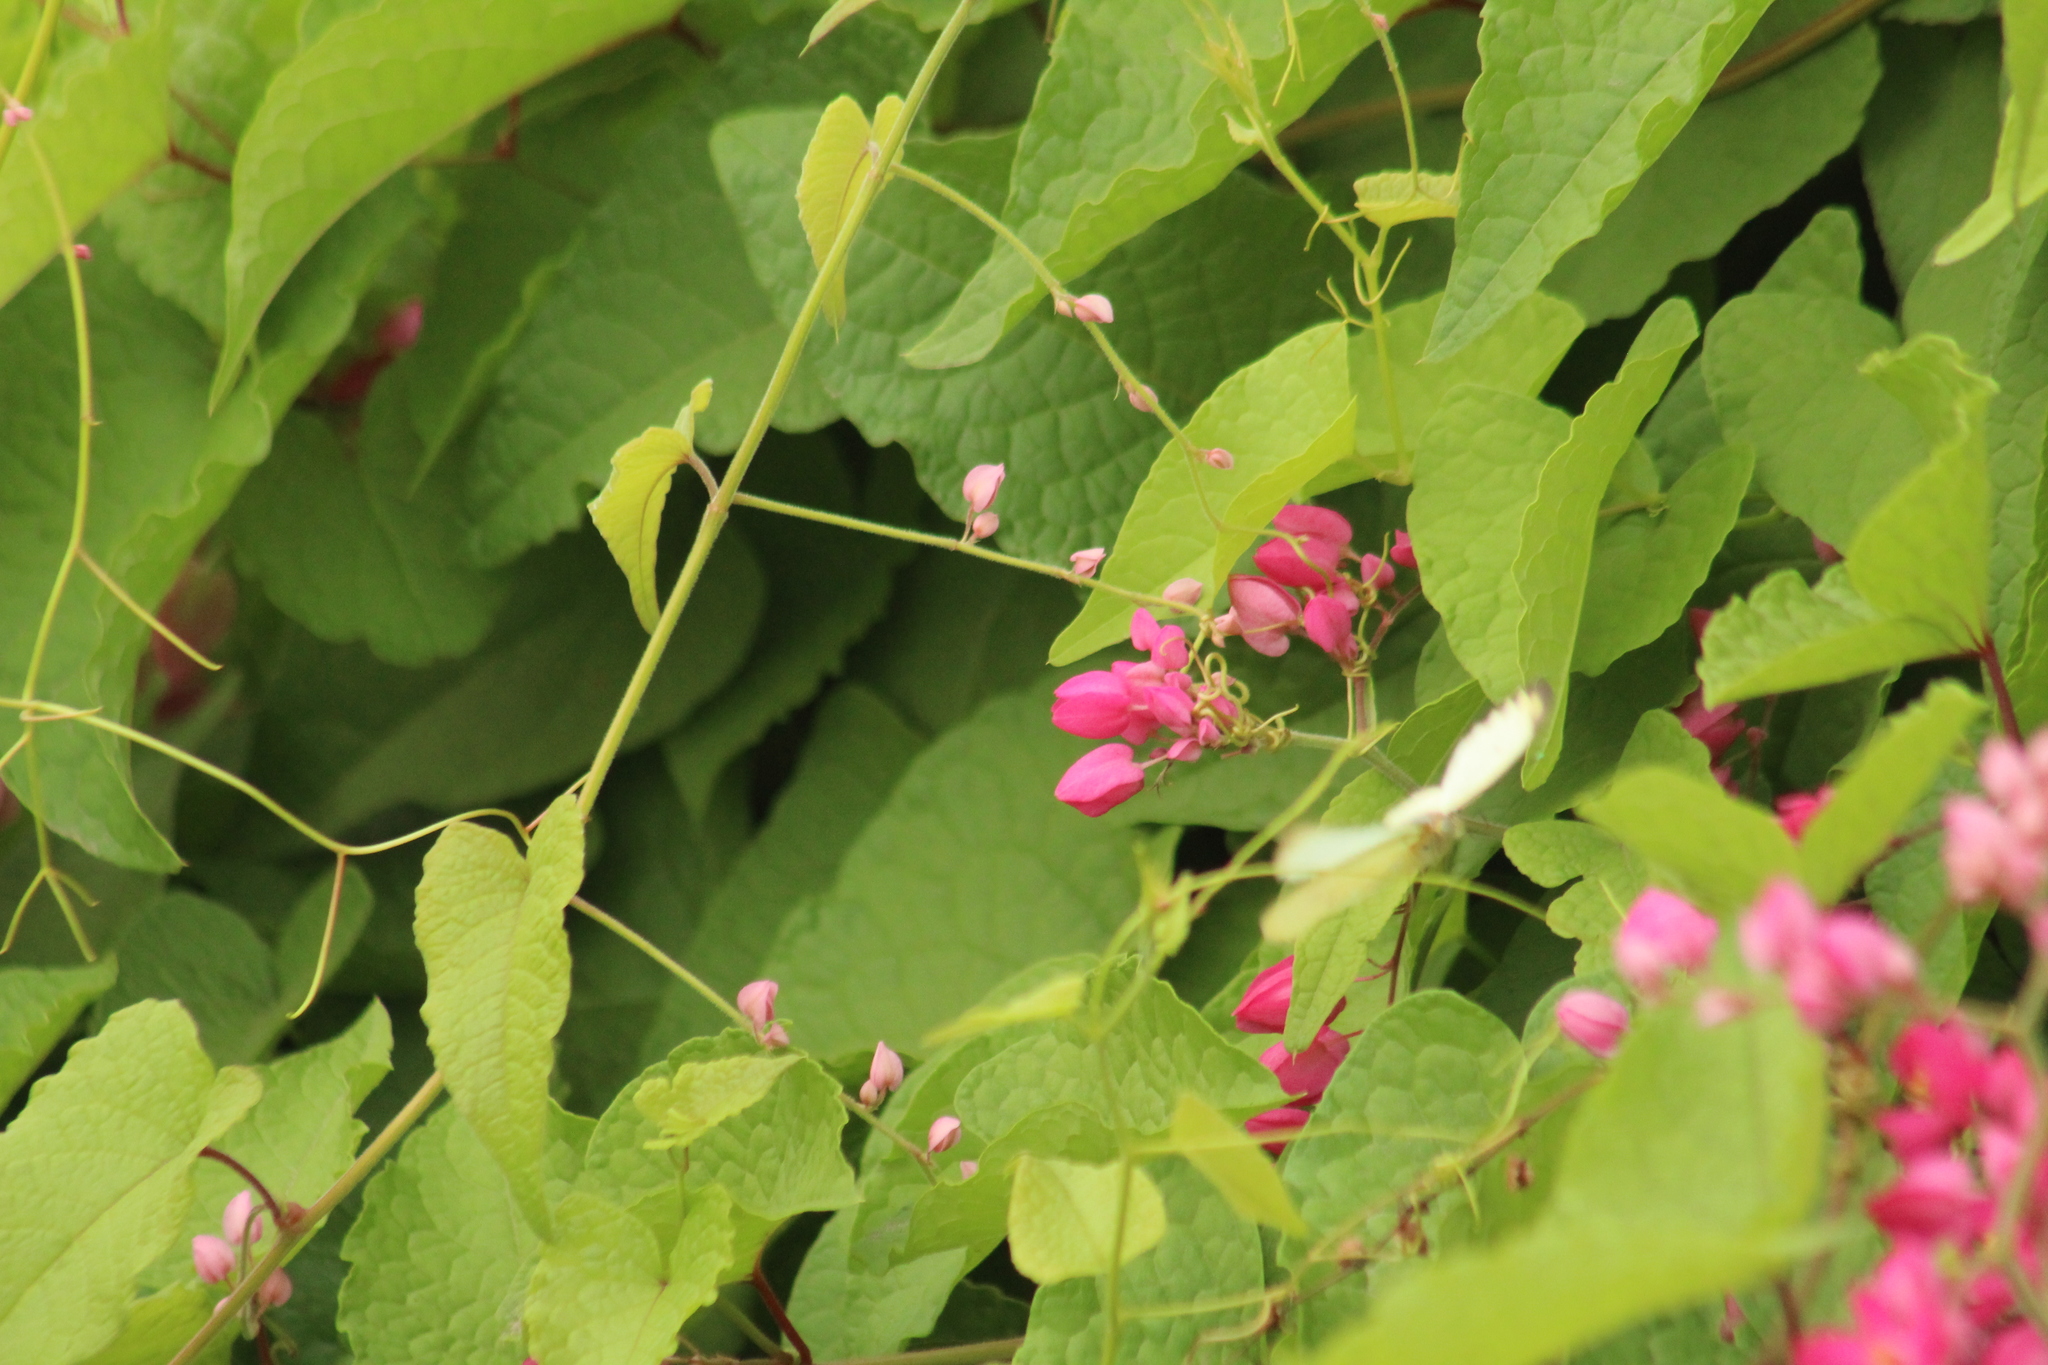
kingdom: Plantae
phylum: Tracheophyta
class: Magnoliopsida
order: Caryophyllales
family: Polygonaceae
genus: Antigonon
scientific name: Antigonon leptopus
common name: Coral vine
